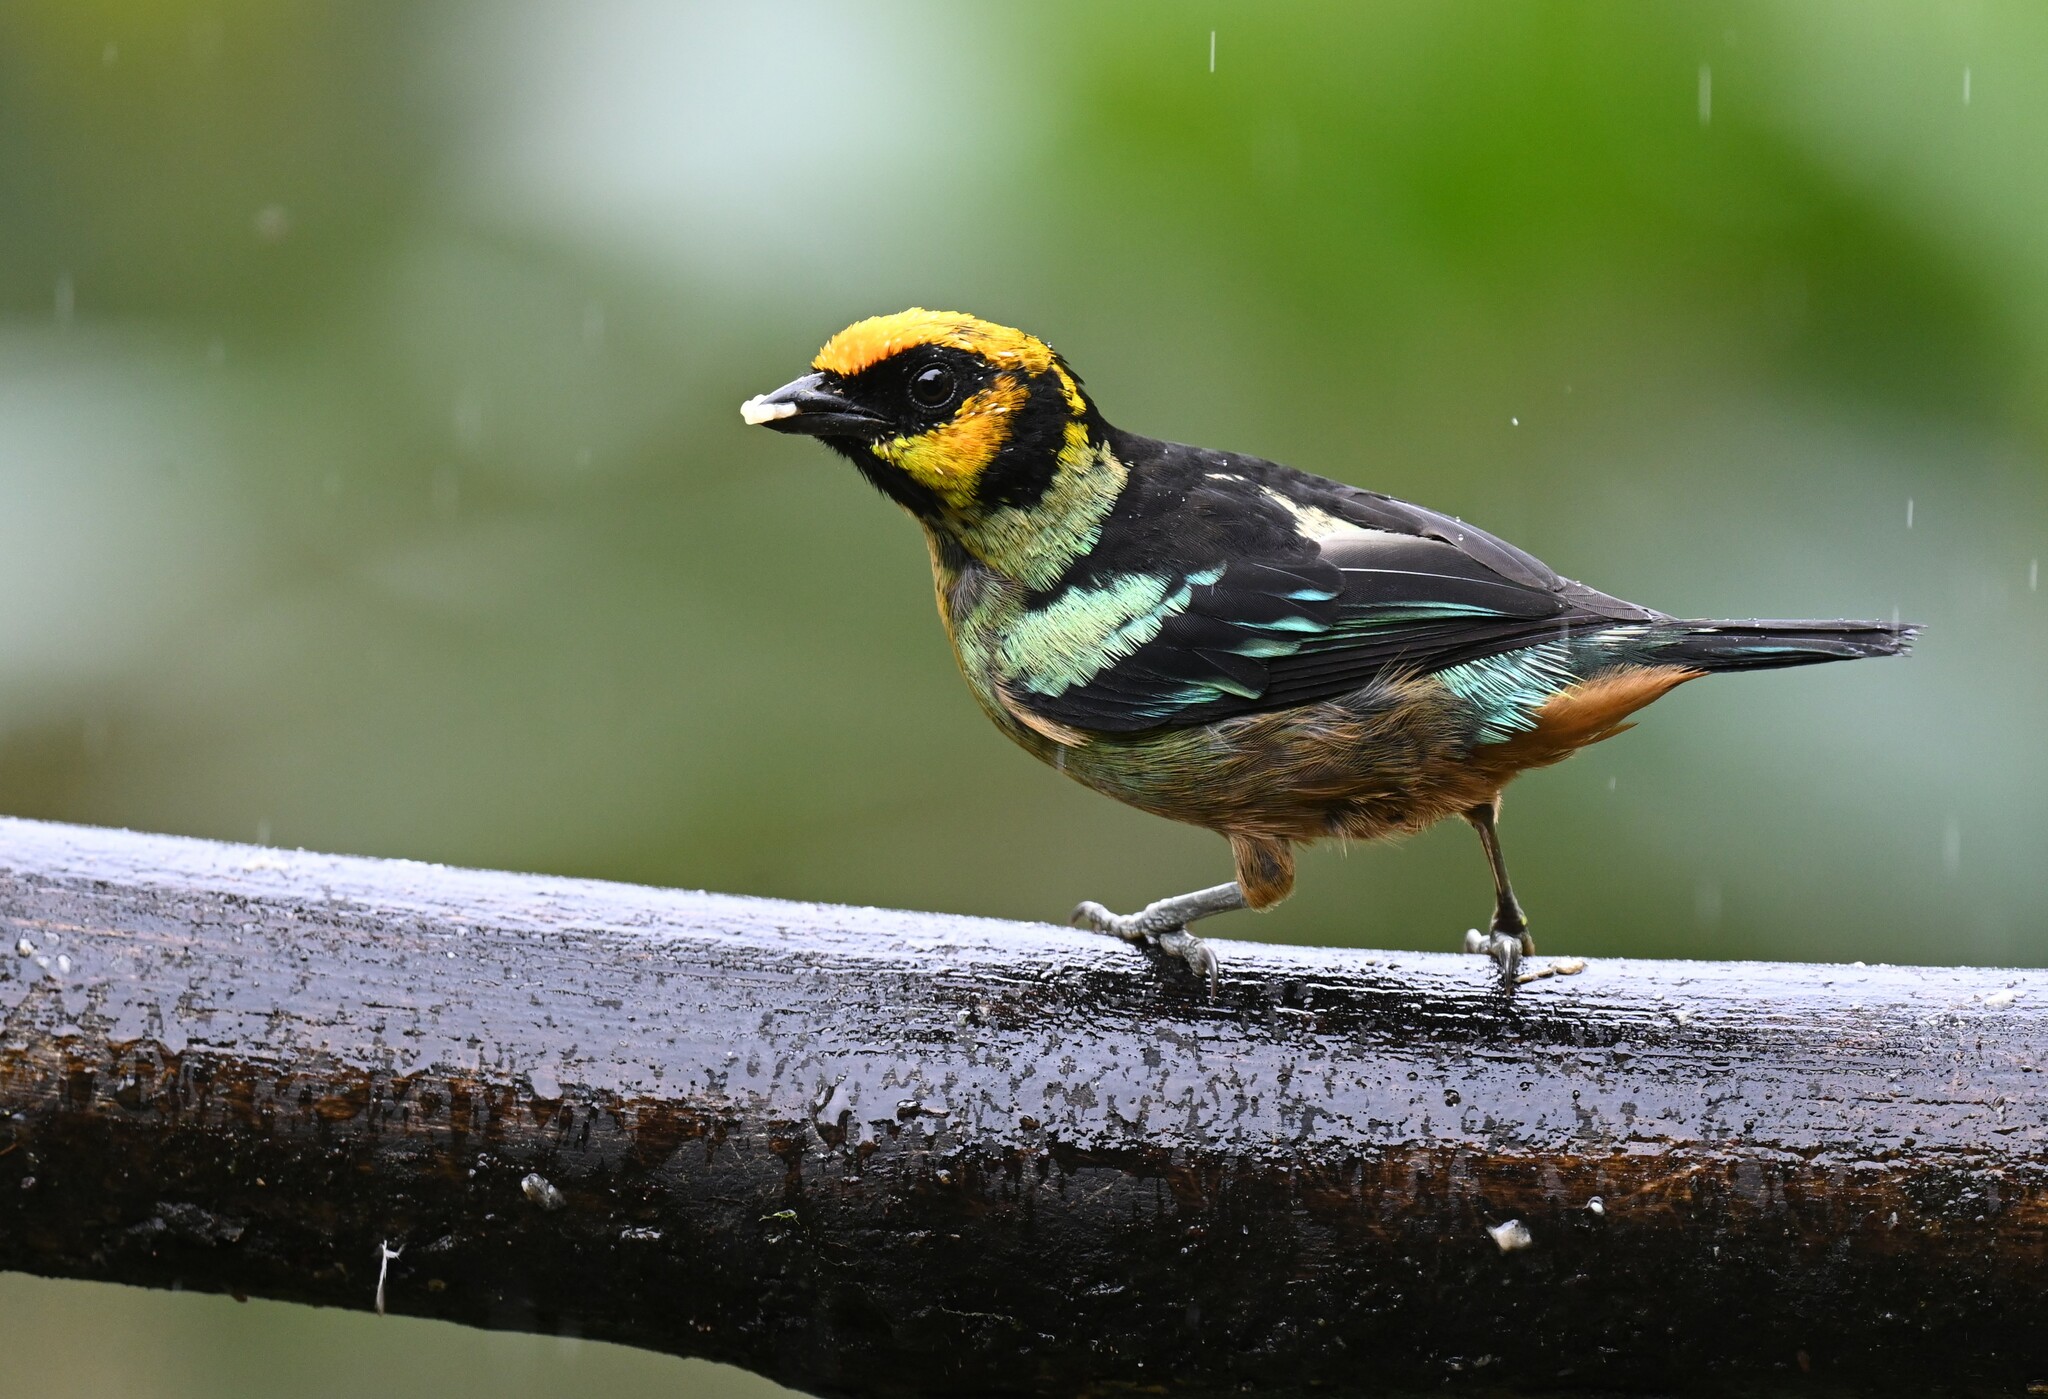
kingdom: Animalia
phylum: Chordata
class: Aves
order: Passeriformes
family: Thraupidae
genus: Tangara
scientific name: Tangara parzudakii
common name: Flame-faced tanager
